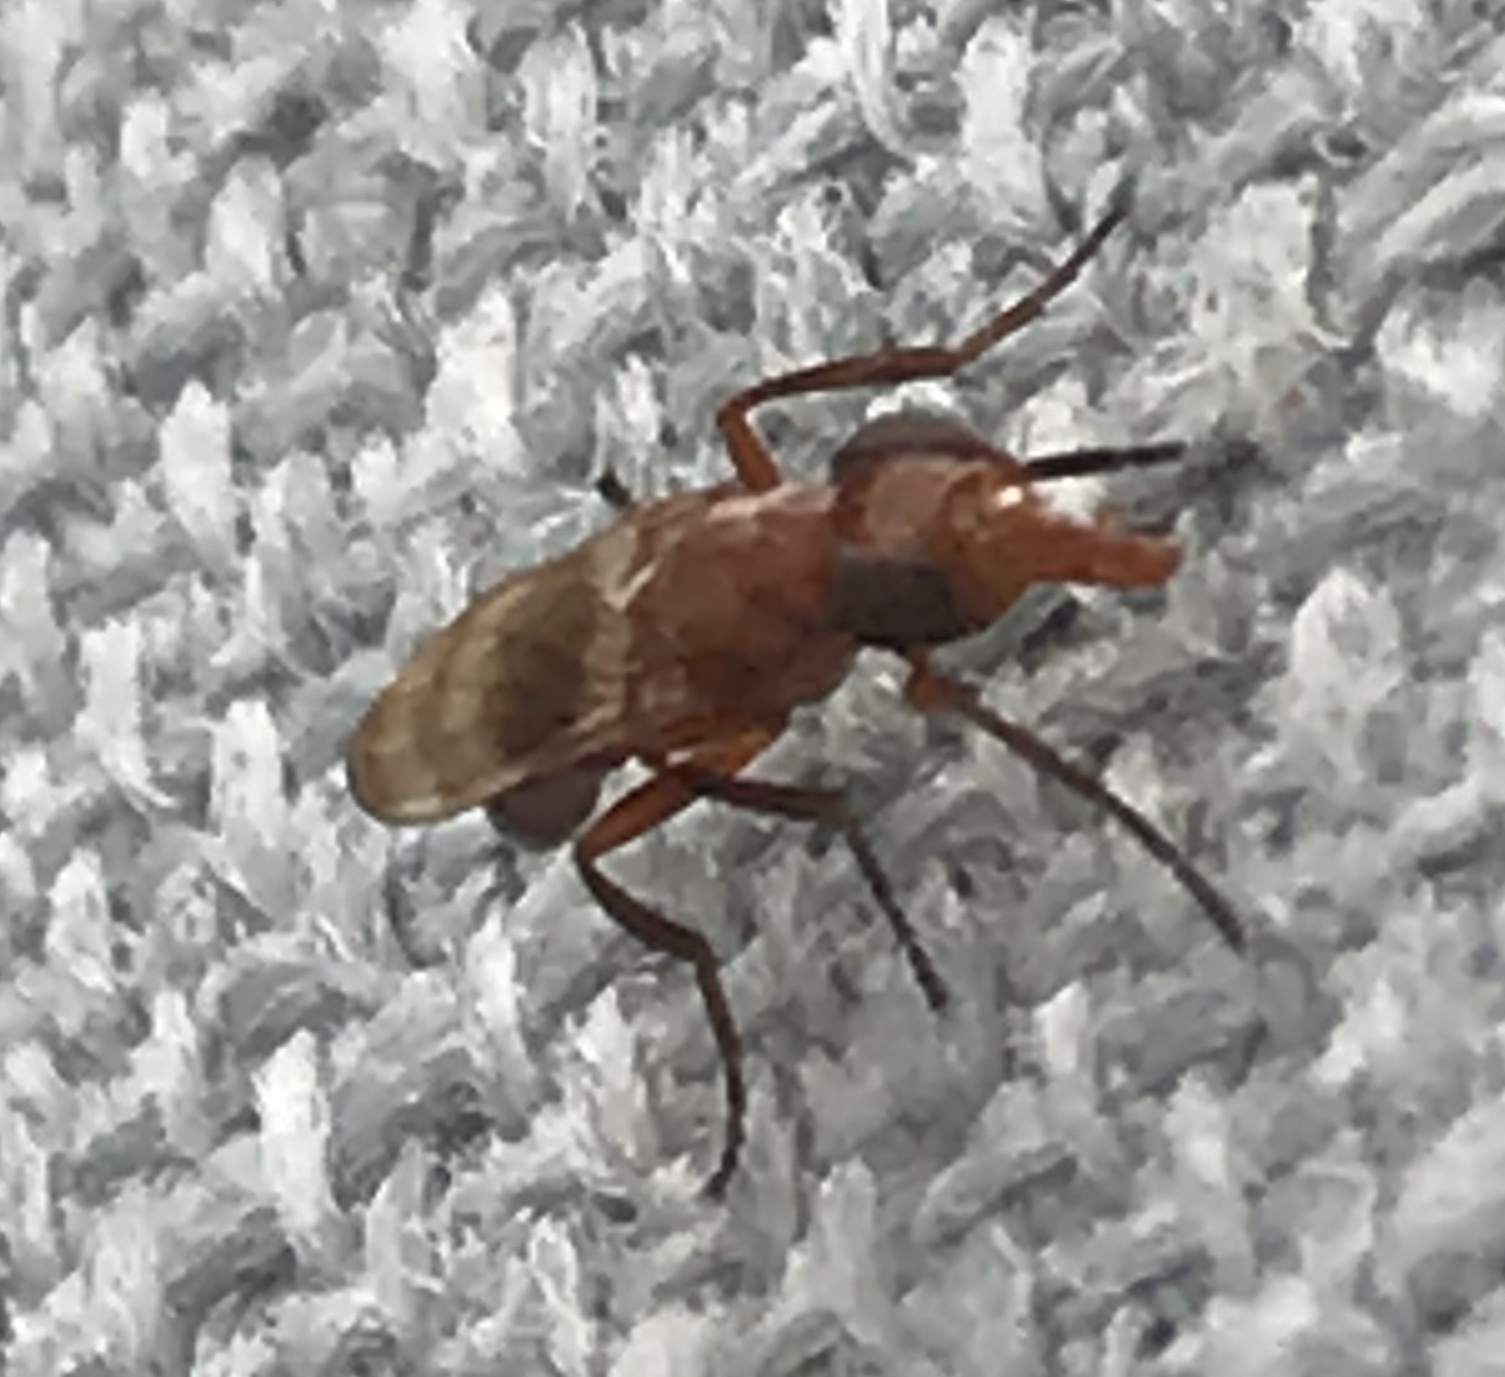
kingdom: Animalia
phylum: Arthropoda
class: Insecta
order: Diptera
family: Ulidiidae
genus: Zacompsia
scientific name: Zacompsia fulva
